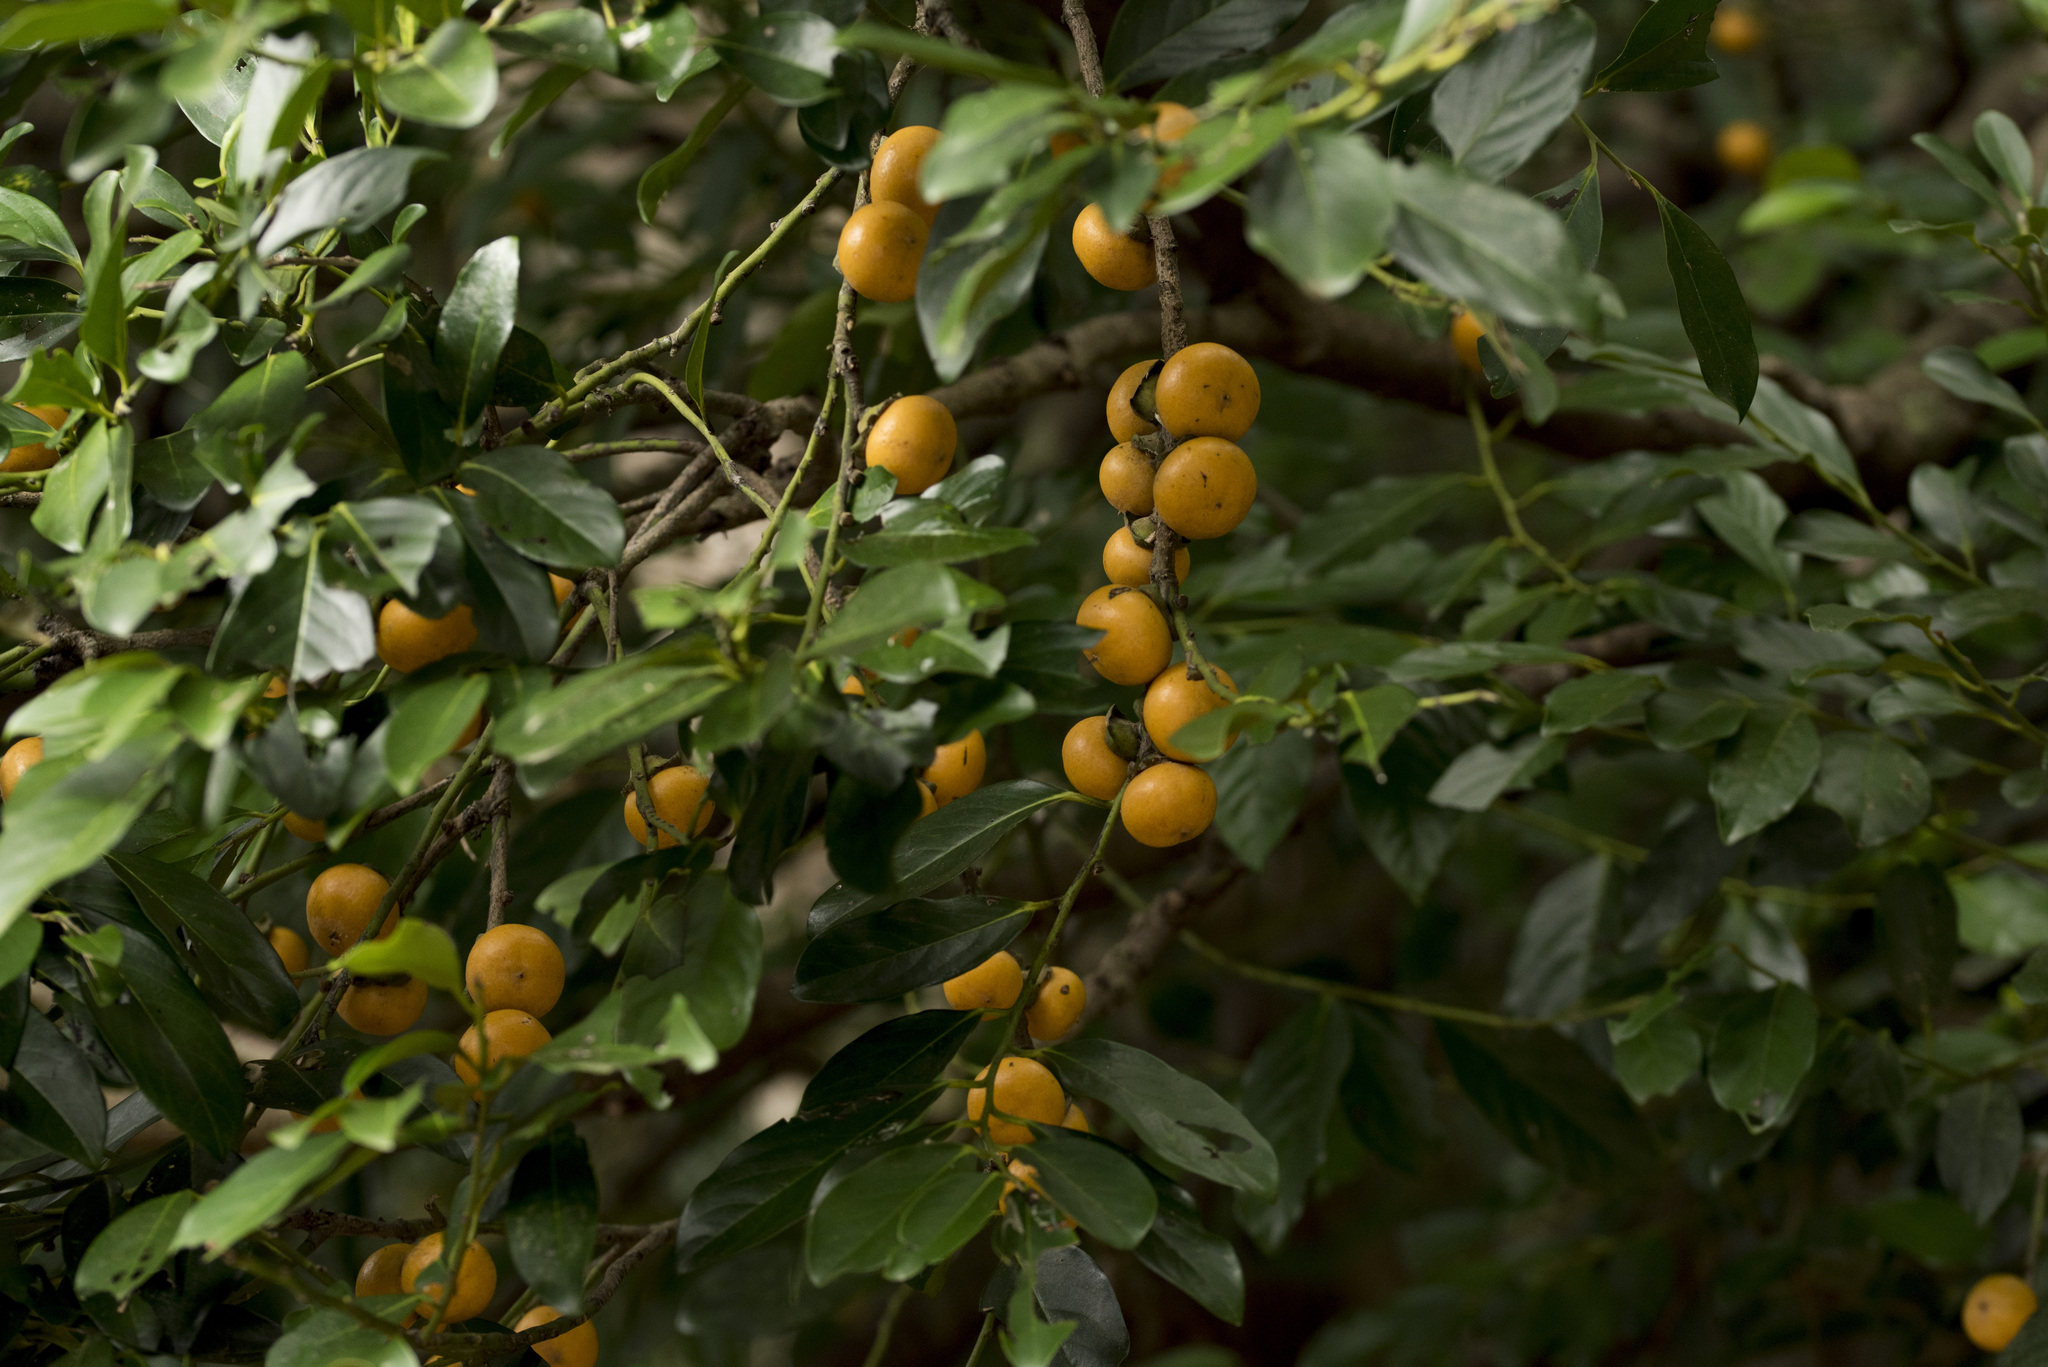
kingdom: Plantae
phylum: Tracheophyta
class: Magnoliopsida
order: Ericales
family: Ebenaceae
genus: Diospyros
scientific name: Diospyros maritima
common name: Malaysian persimmon
